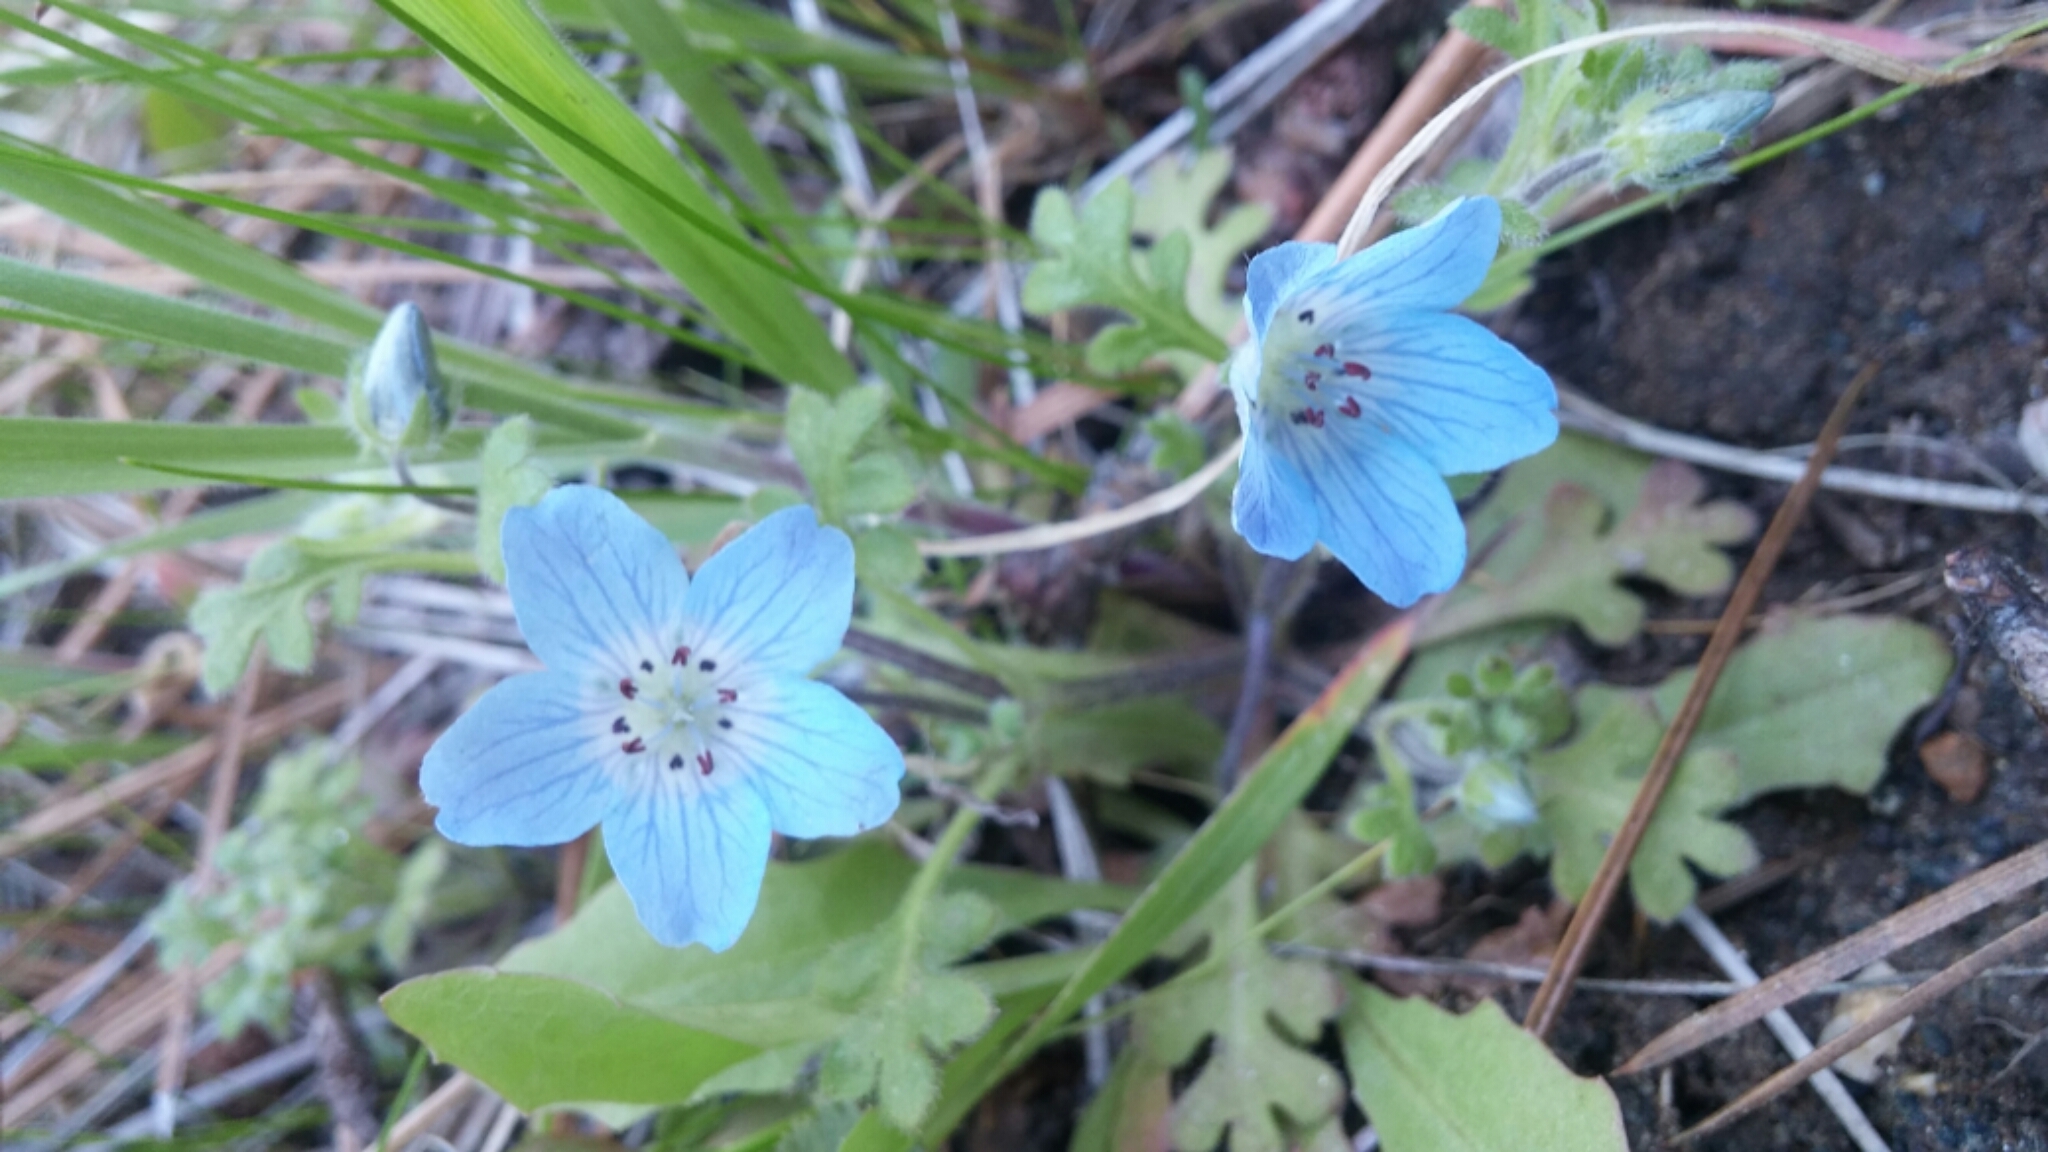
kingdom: Plantae
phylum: Tracheophyta
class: Magnoliopsida
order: Boraginales
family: Hydrophyllaceae
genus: Nemophila
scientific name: Nemophila menziesii
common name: Baby's-blue-eyes
